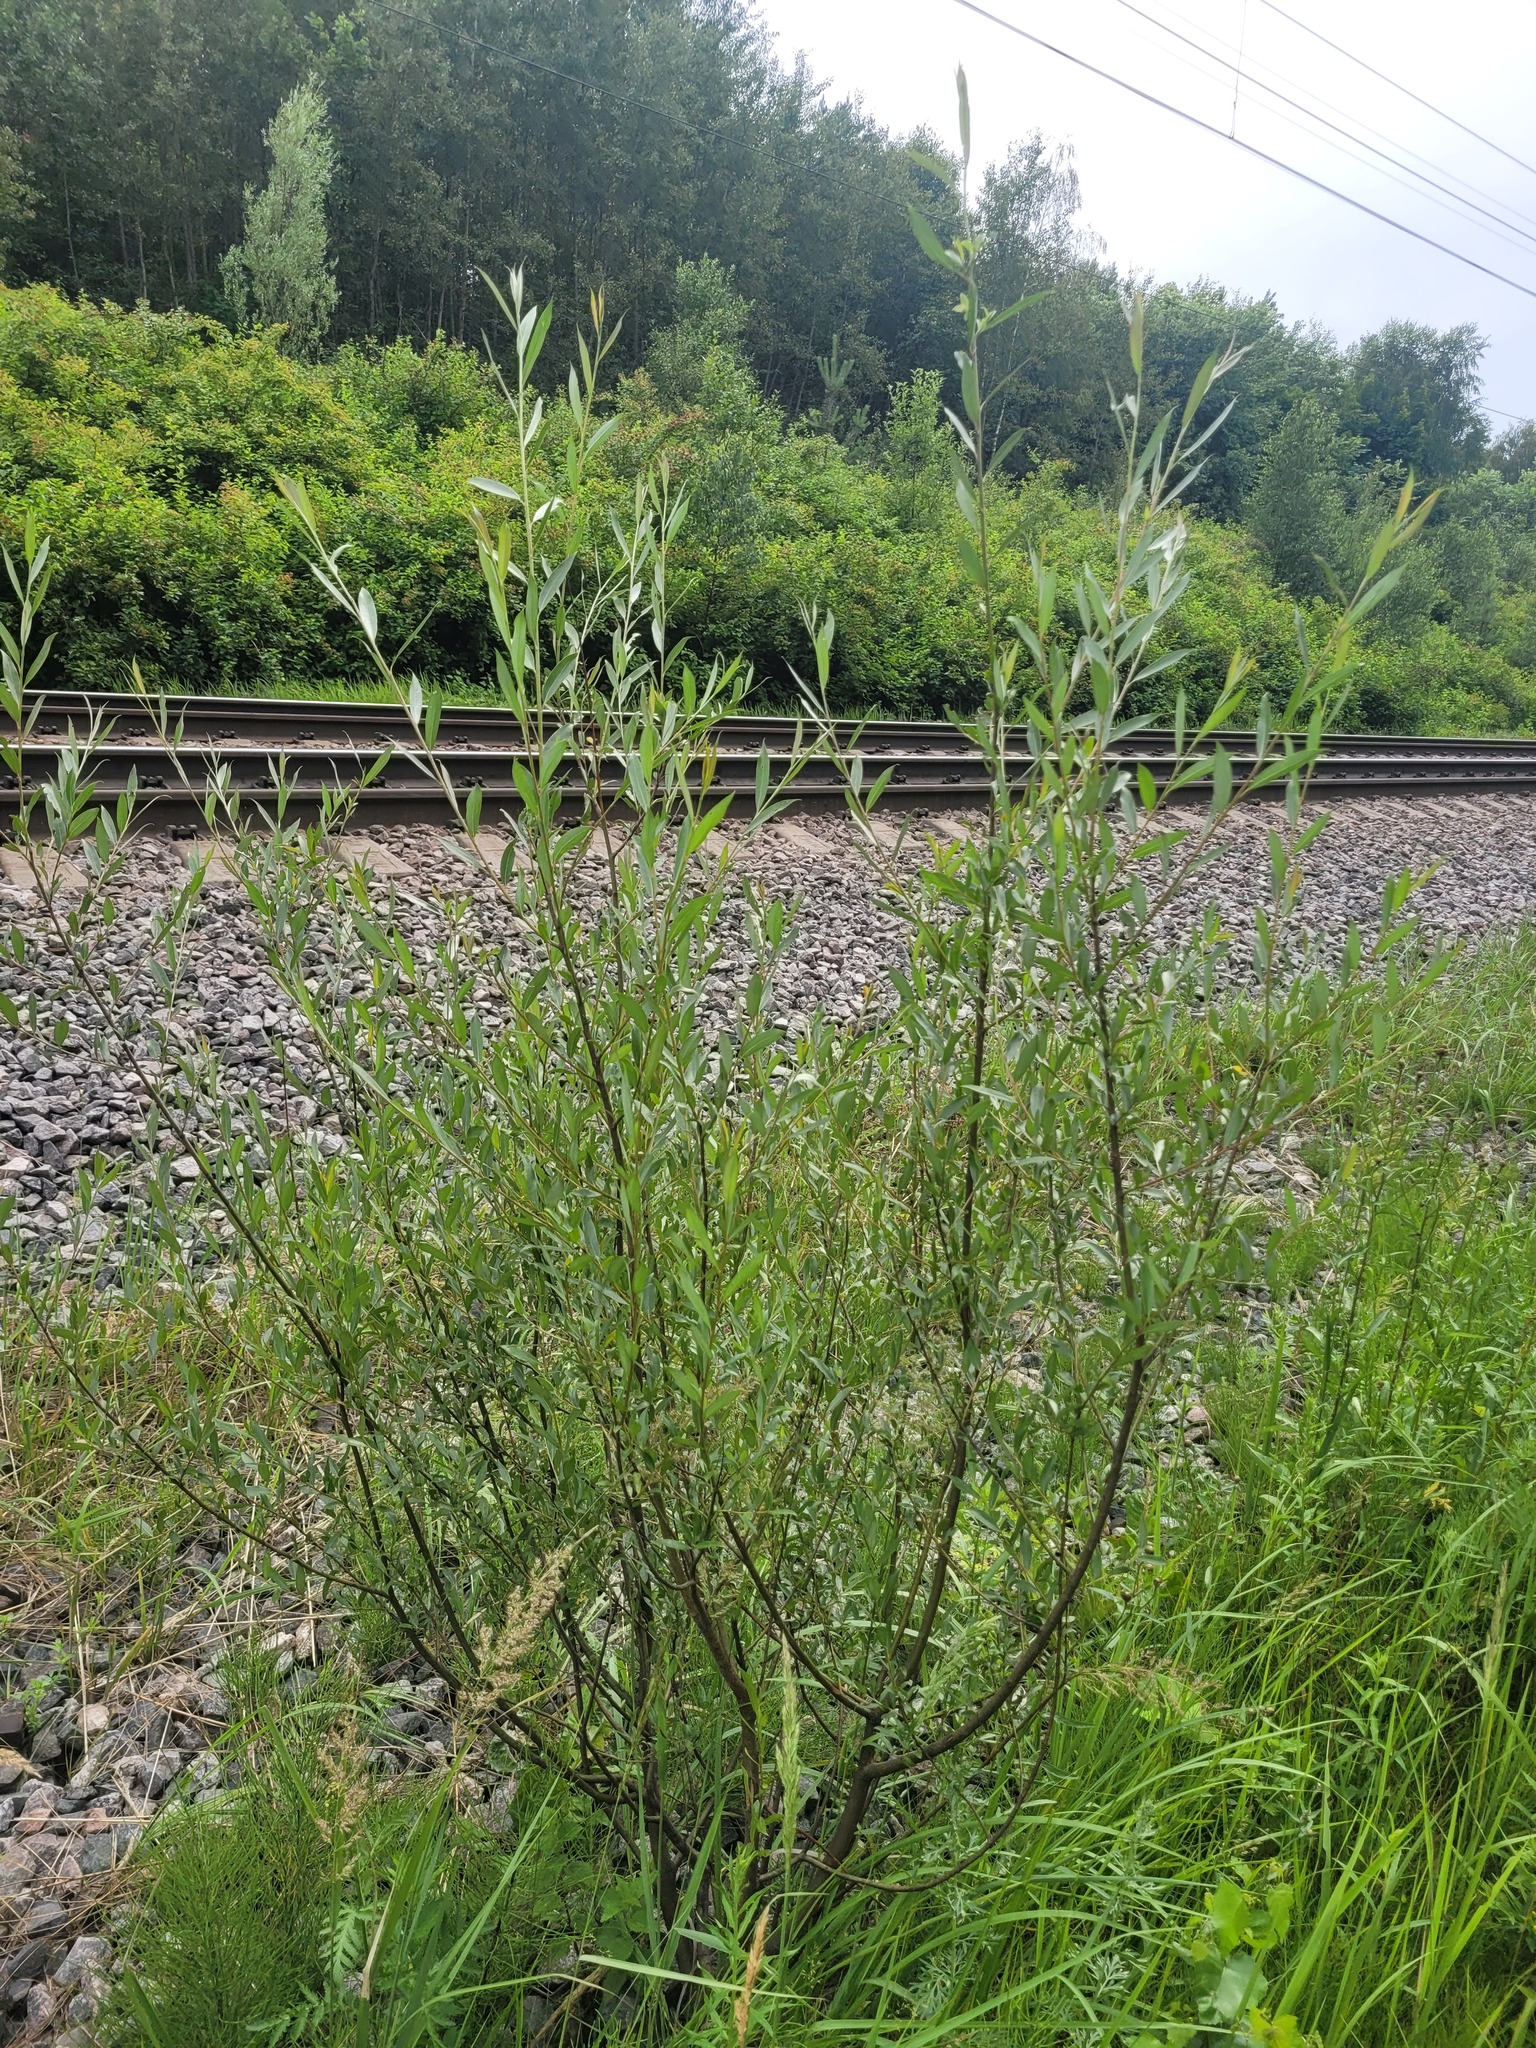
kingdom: Plantae
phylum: Tracheophyta
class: Magnoliopsida
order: Malpighiales
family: Salicaceae
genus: Salix
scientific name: Salix alba
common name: White willow
